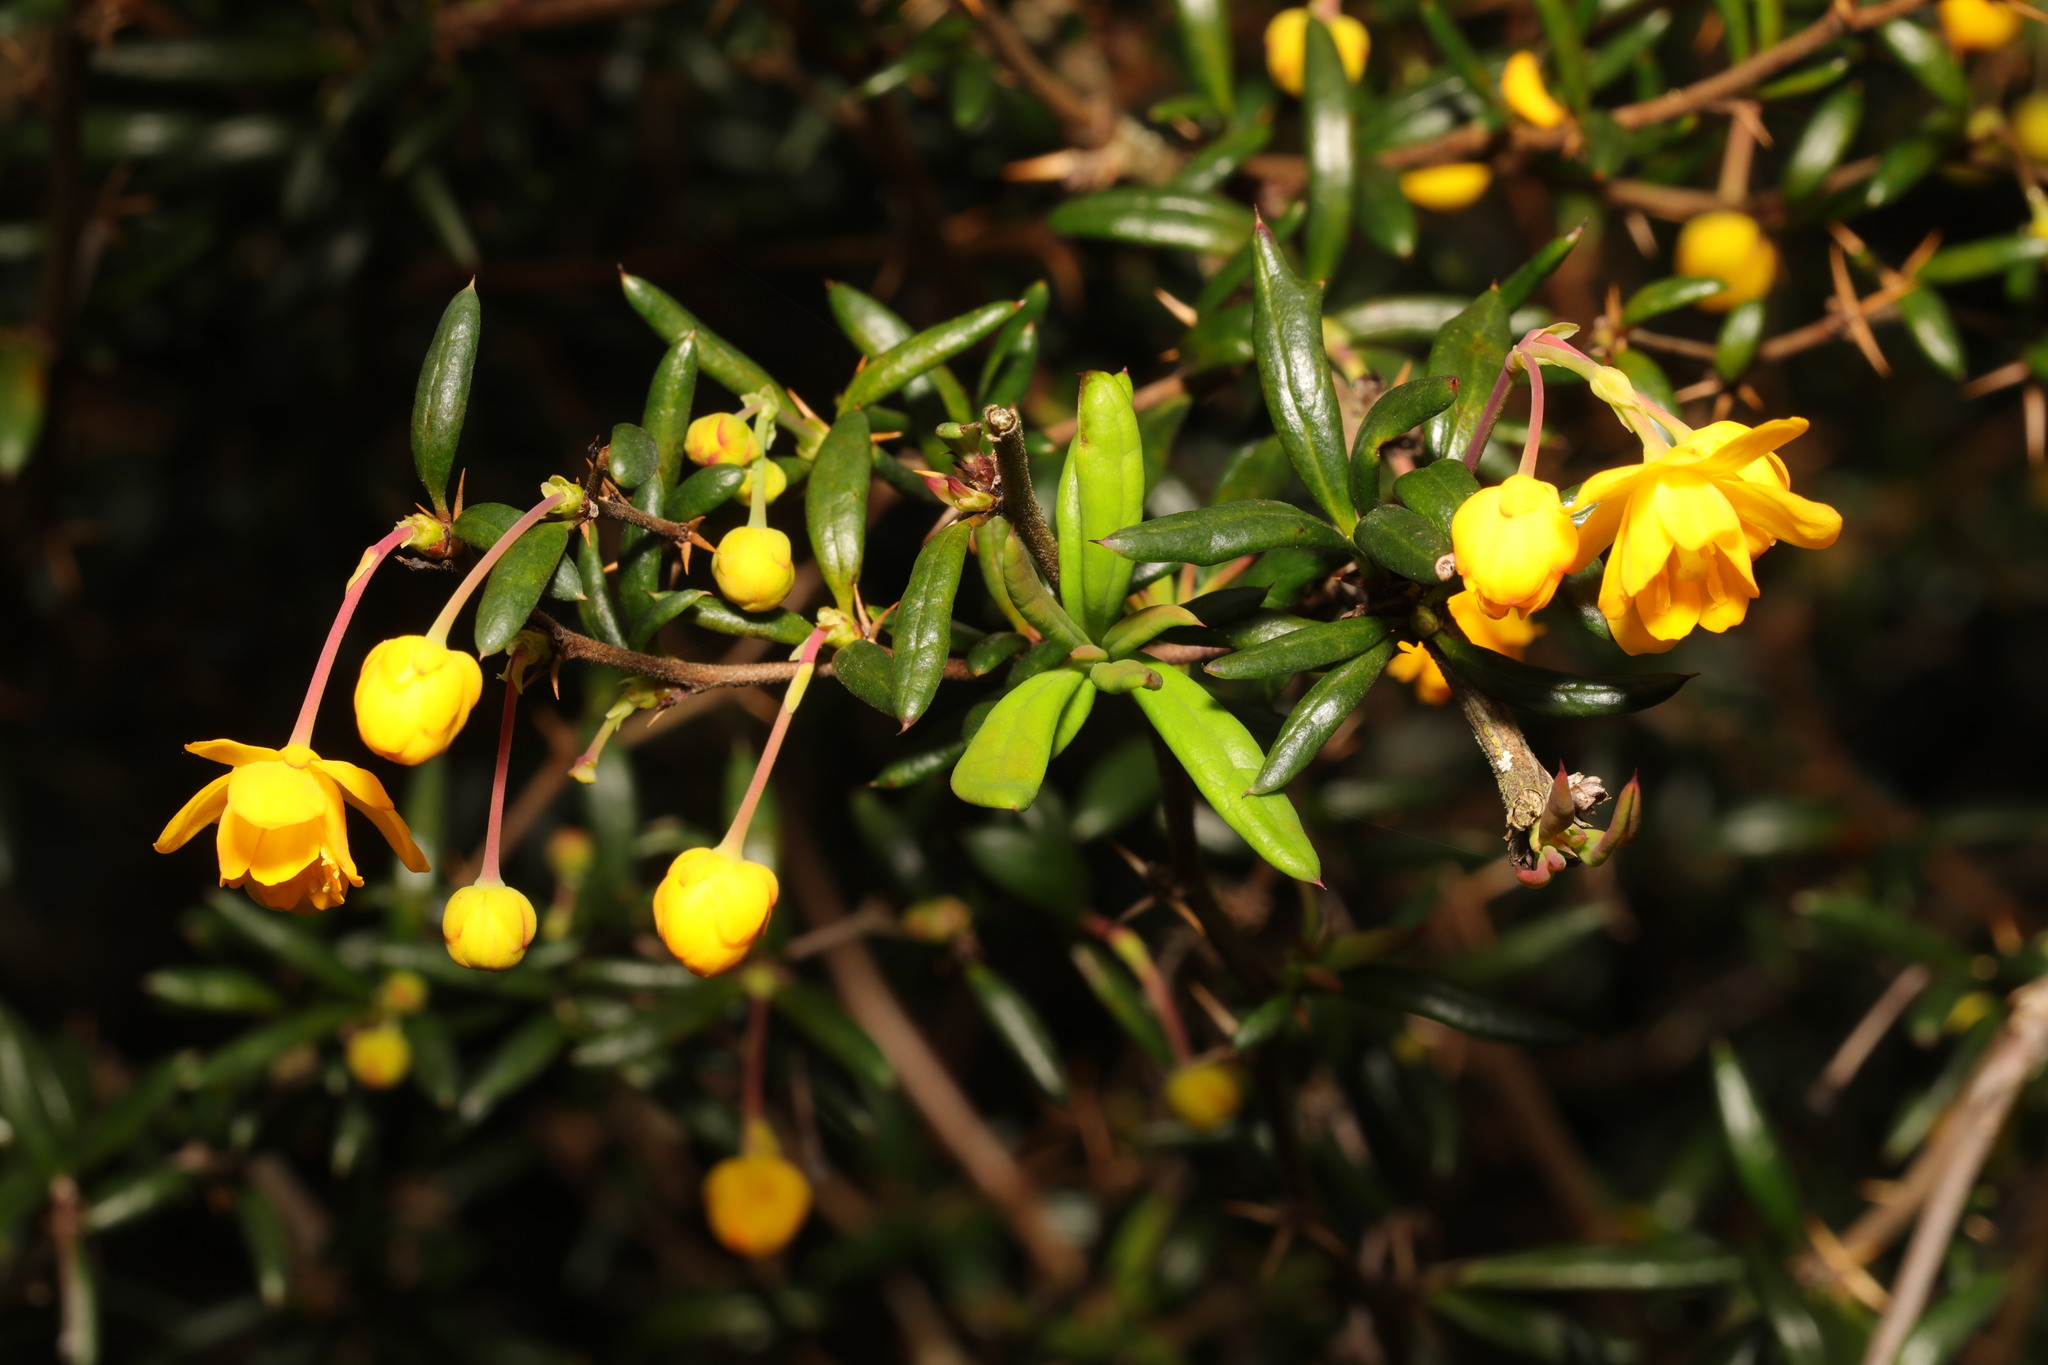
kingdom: Plantae
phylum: Tracheophyta
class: Magnoliopsida
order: Ranunculales
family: Berberidaceae
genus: Berberis
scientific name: Berberis stenophylla
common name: Hedge barberry
